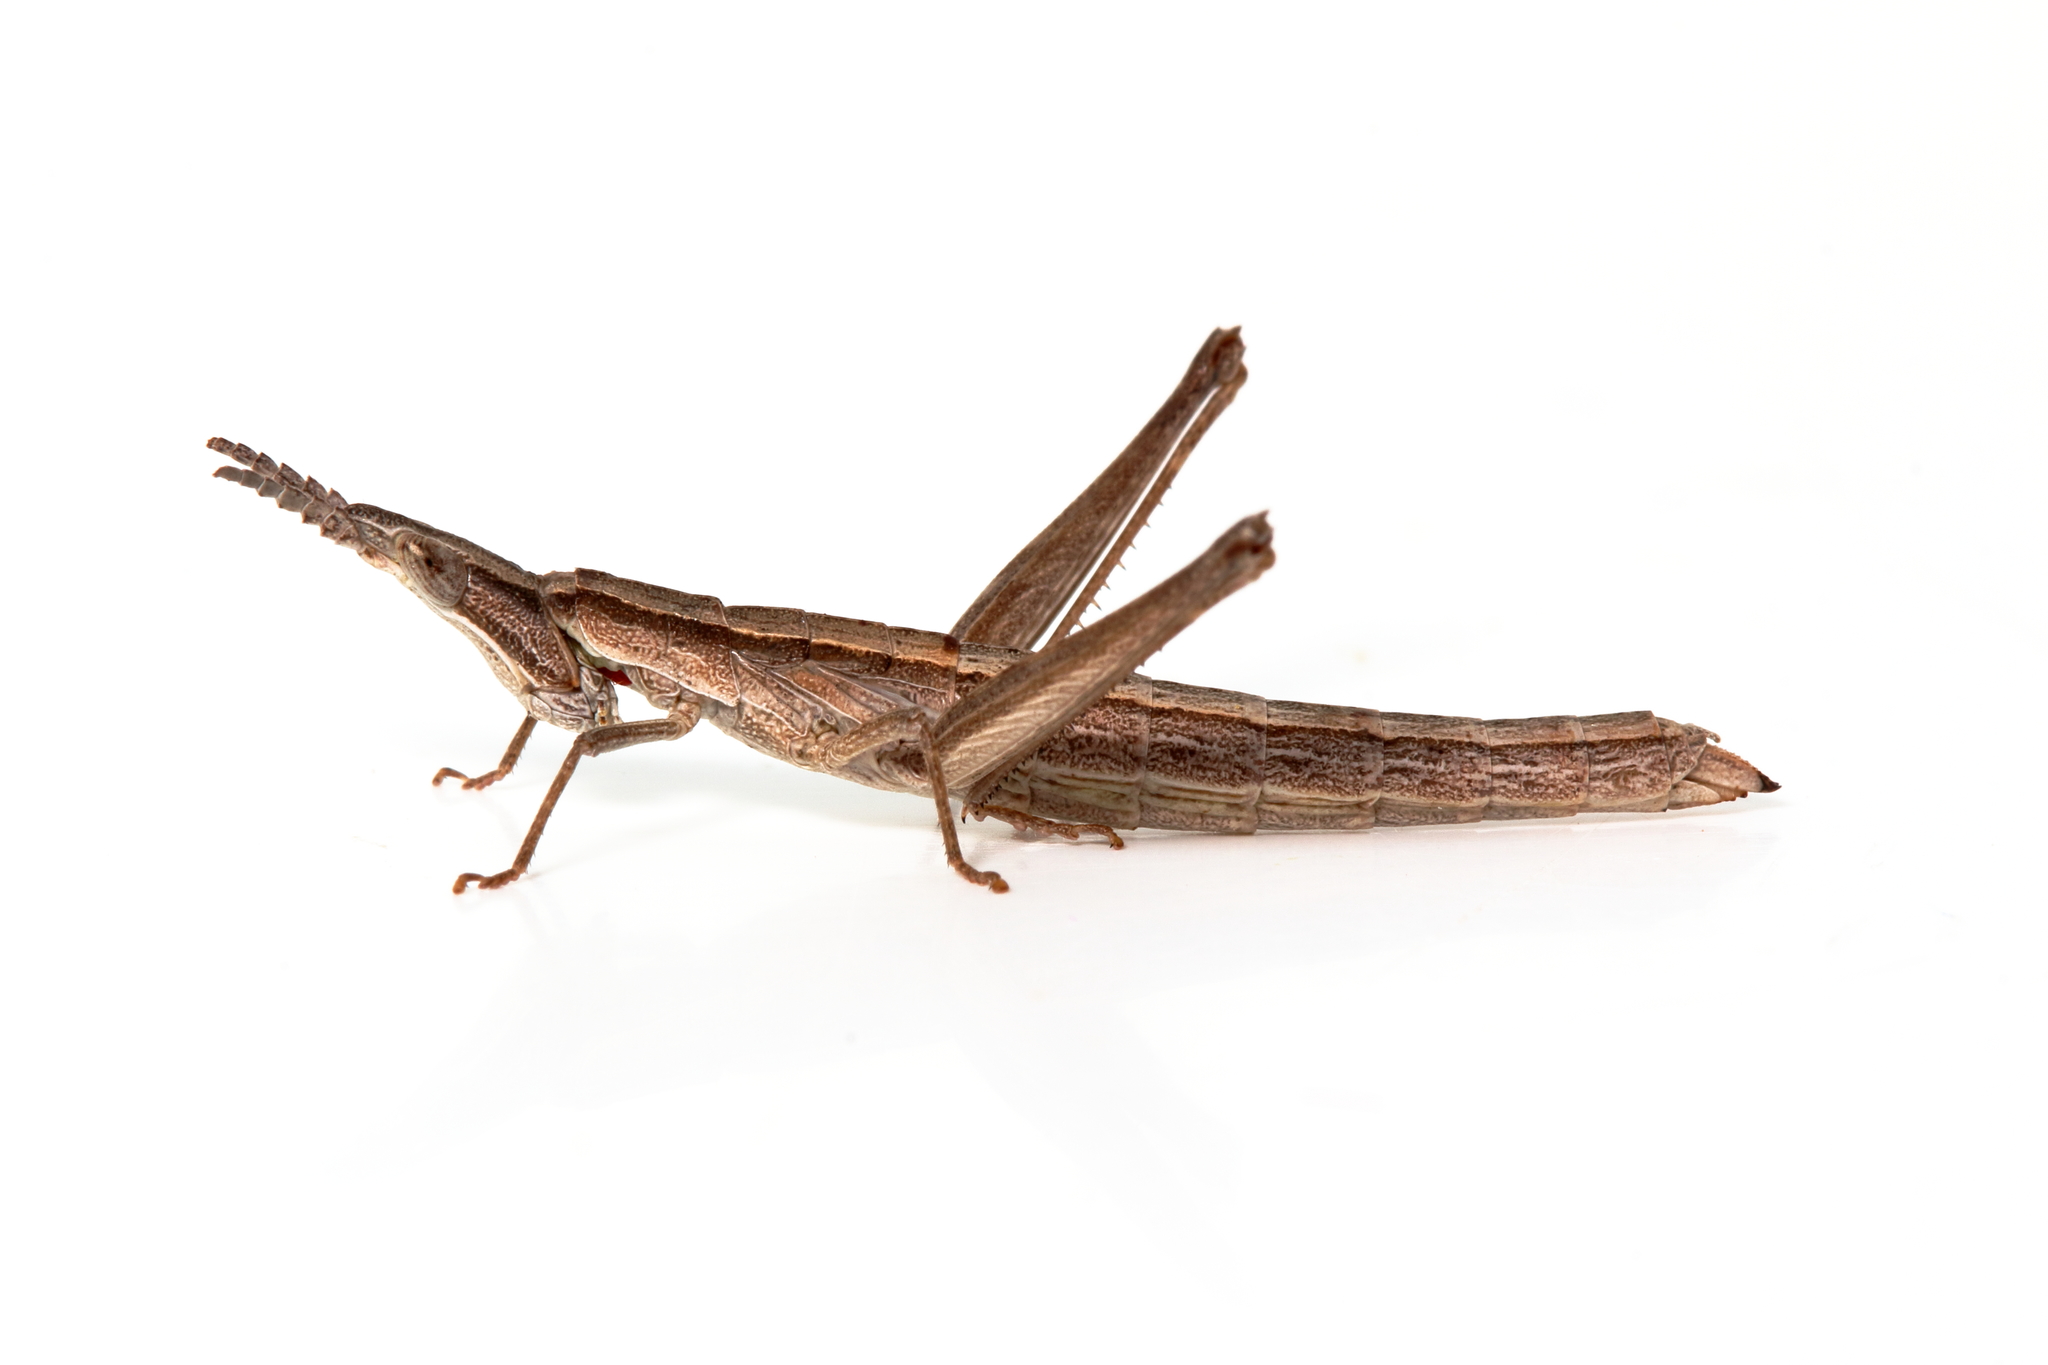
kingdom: Animalia
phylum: Arthropoda
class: Insecta
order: Orthoptera
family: Morabidae
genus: Keyacris
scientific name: Keyacris scurra
